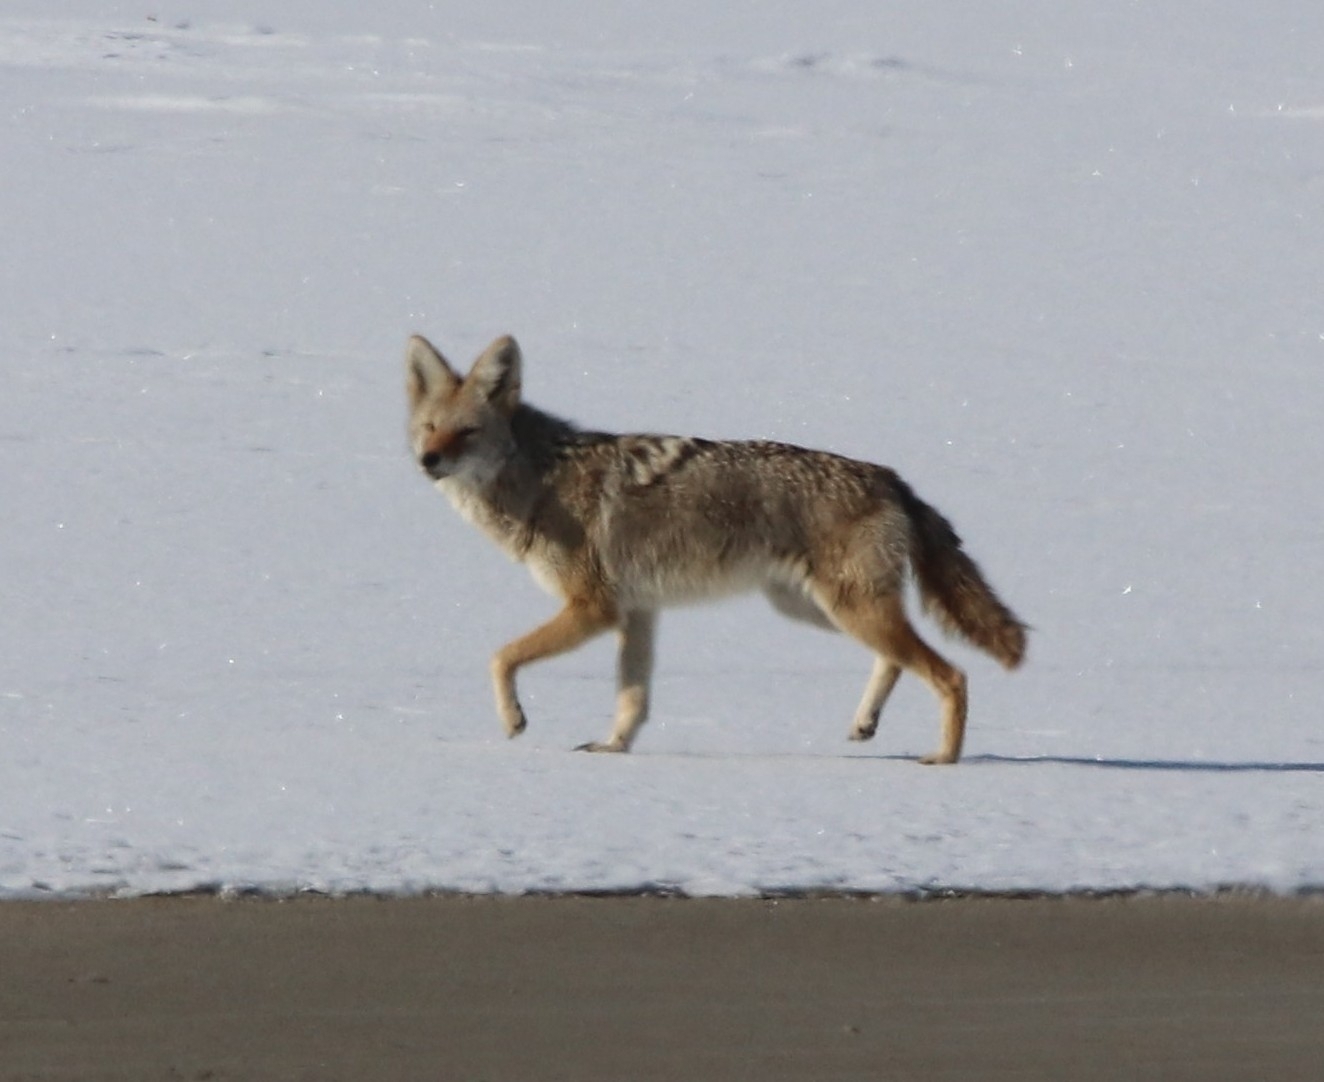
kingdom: Animalia
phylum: Chordata
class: Mammalia
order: Carnivora
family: Canidae
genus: Canis
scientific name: Canis latrans
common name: Coyote
